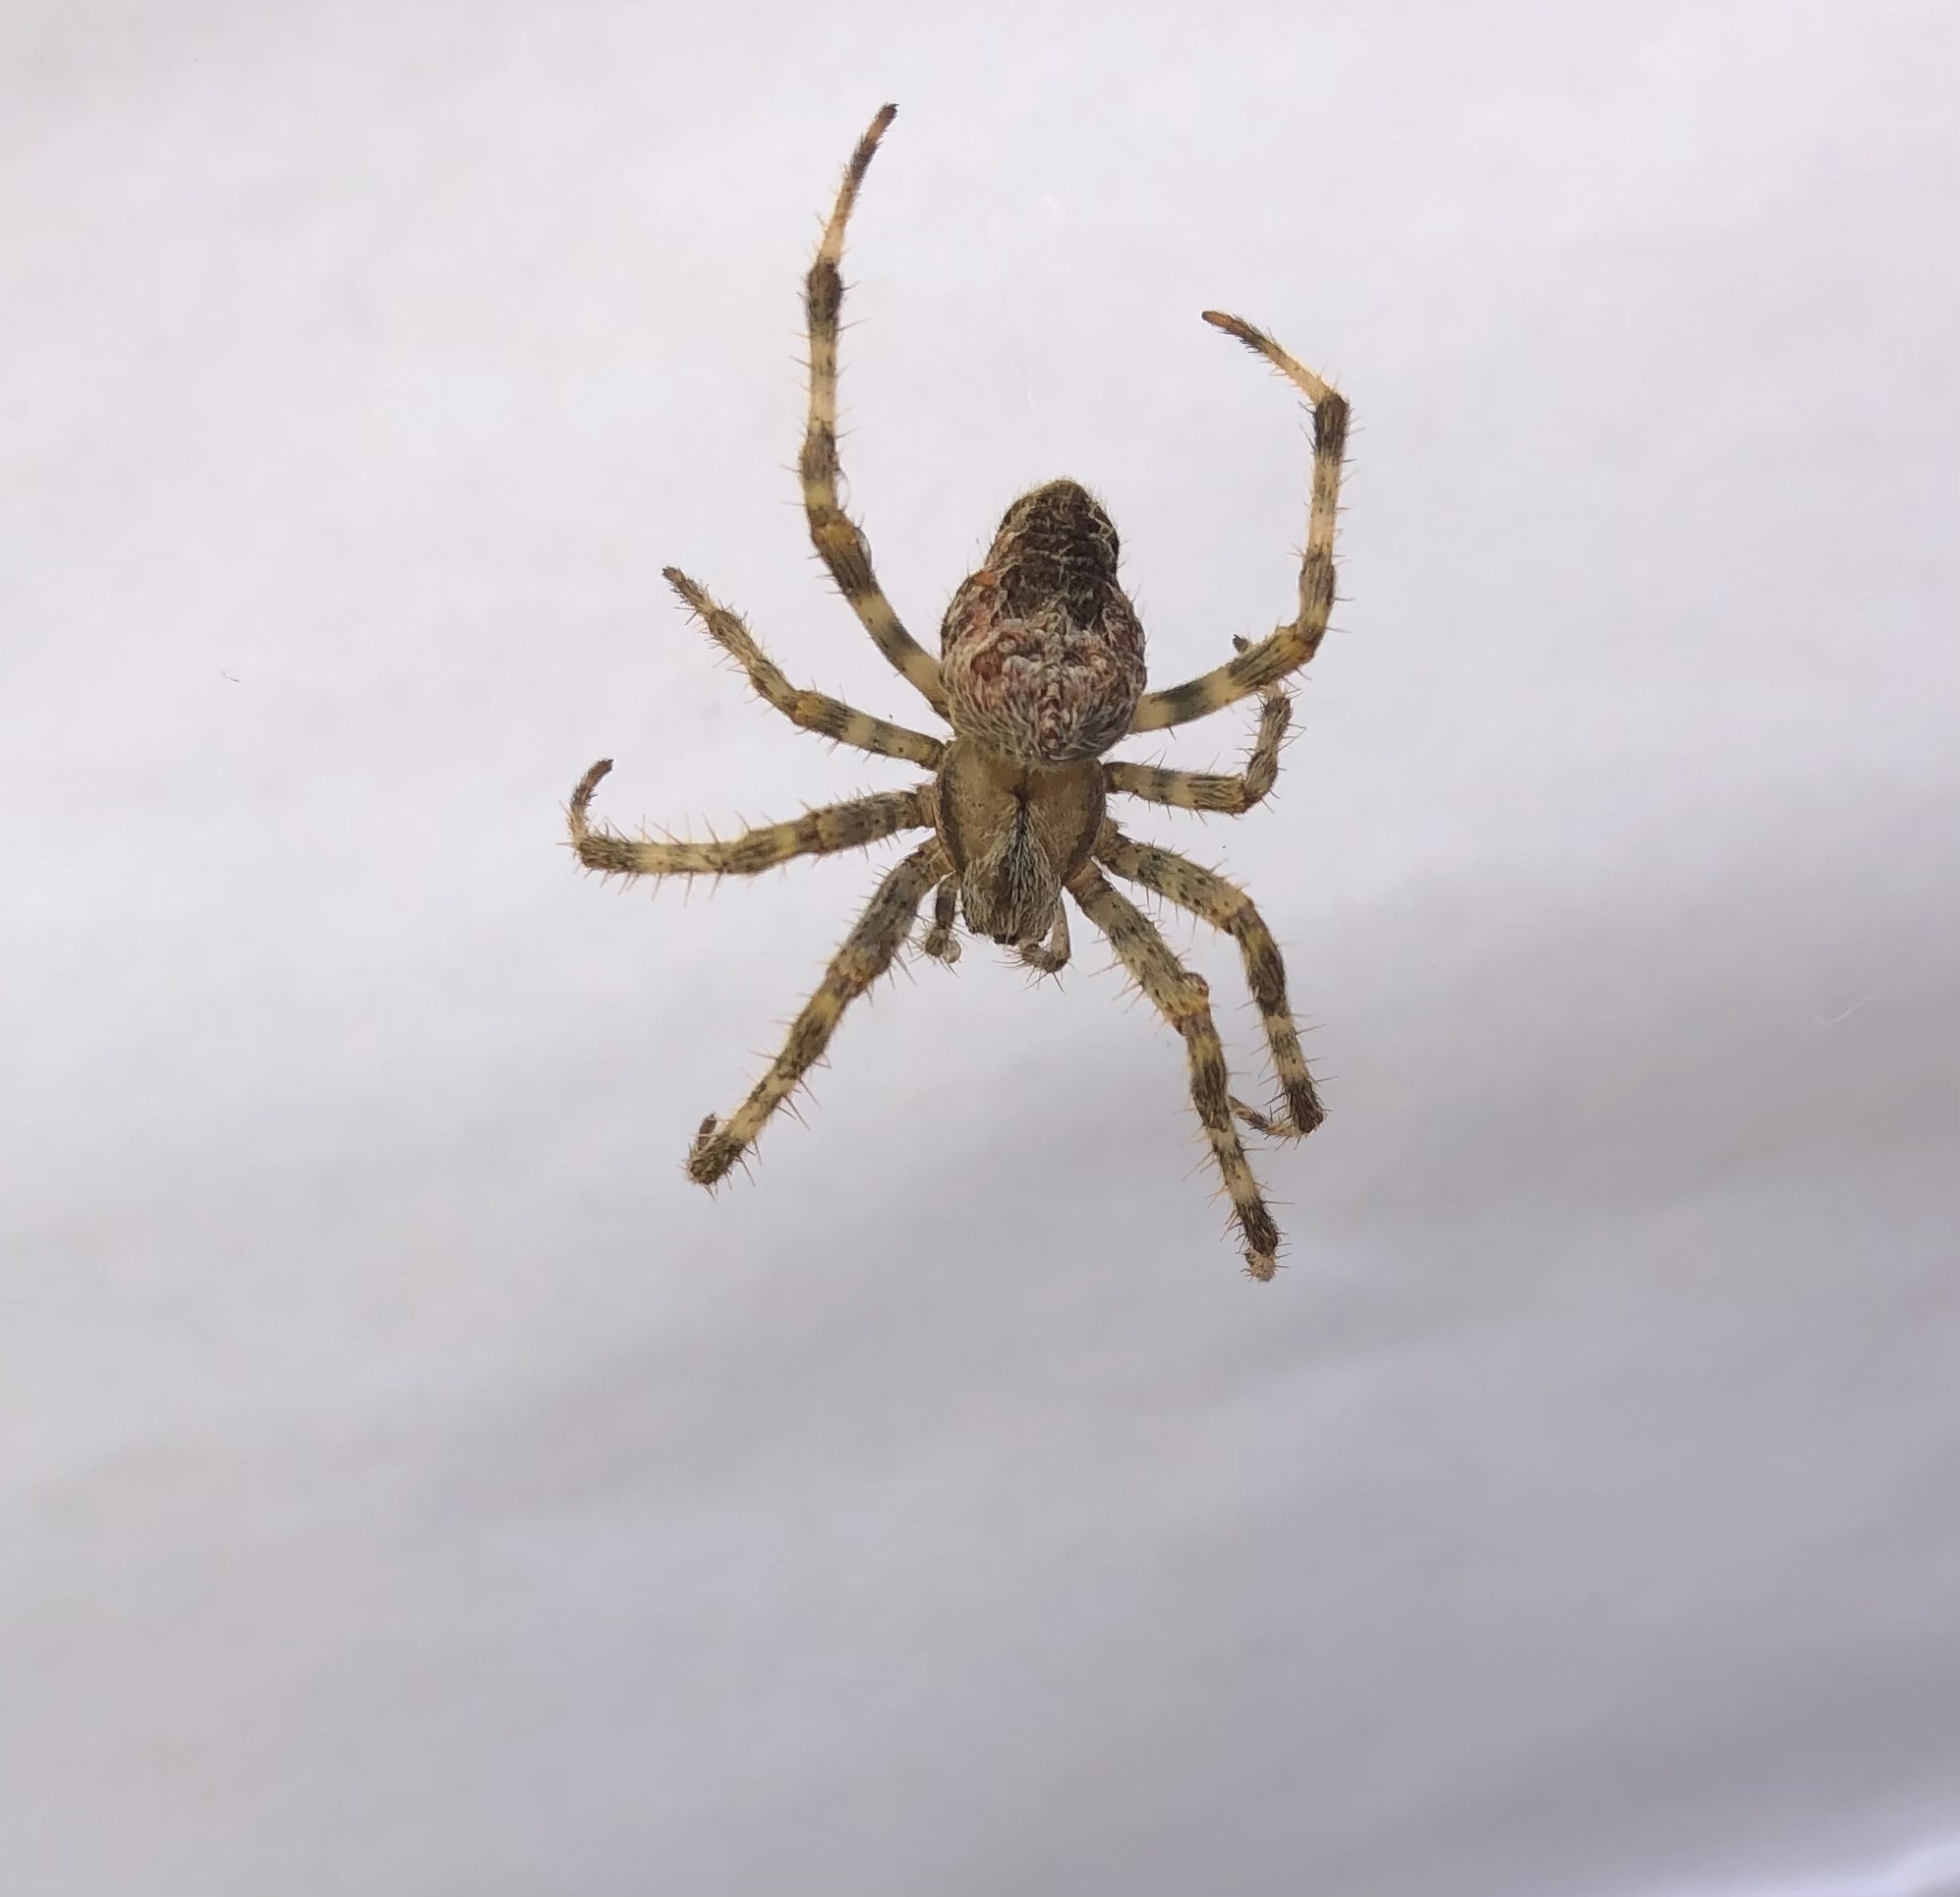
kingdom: Animalia
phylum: Arthropoda
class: Arachnida
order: Araneae
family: Araneidae
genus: Araneus
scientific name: Araneus diadematus
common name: Cross orbweaver
